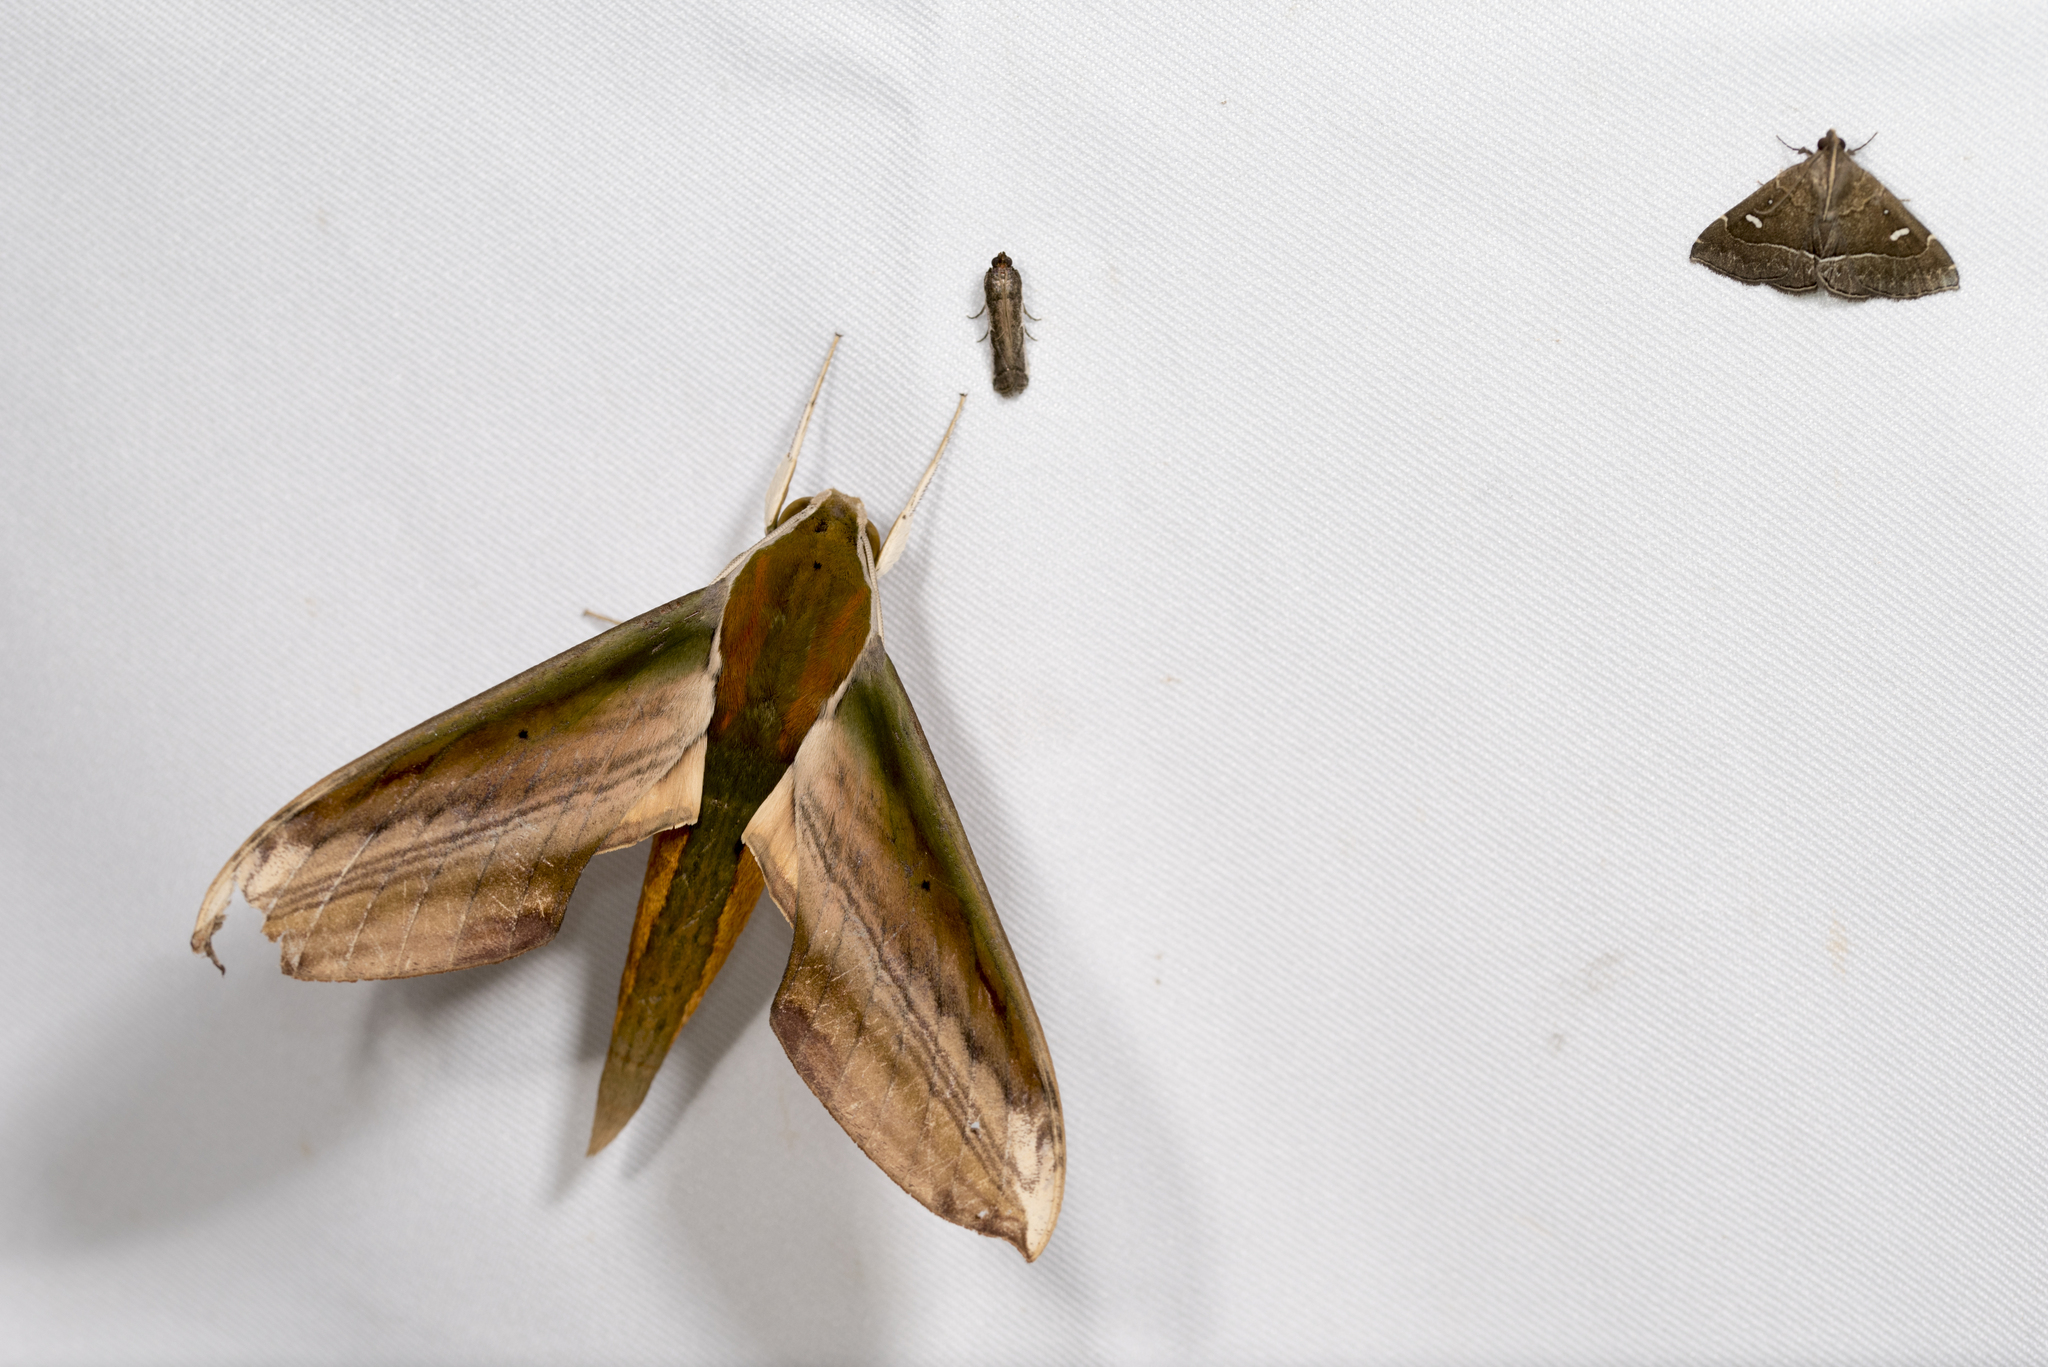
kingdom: Animalia
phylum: Arthropoda
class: Insecta
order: Lepidoptera
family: Sphingidae
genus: Theretra
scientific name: Theretra nessus
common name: Yam hawk moth
